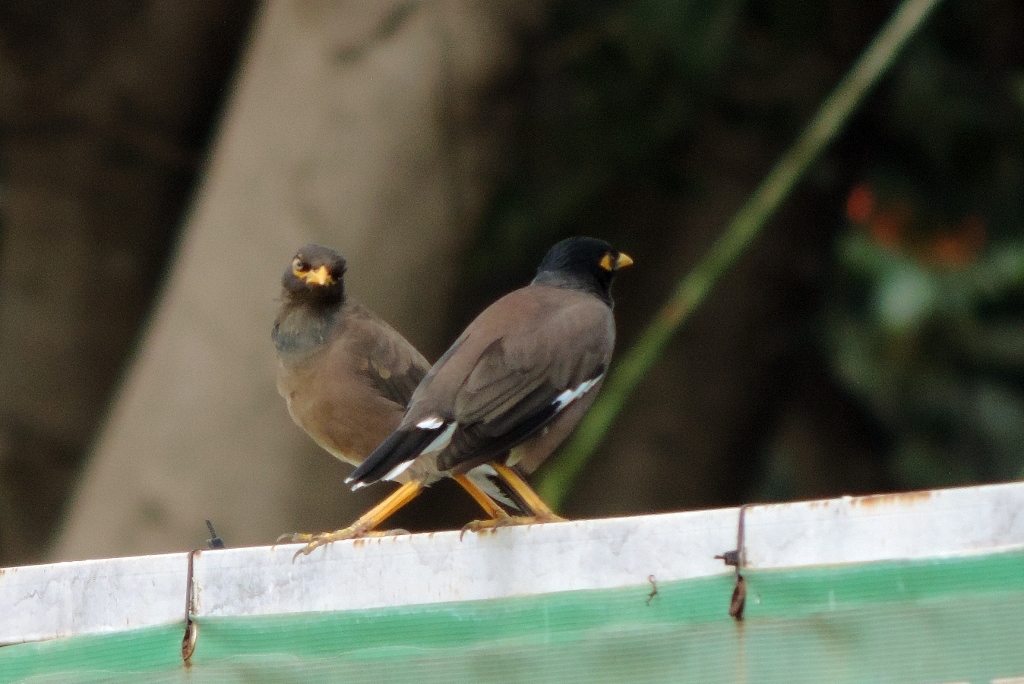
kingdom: Animalia
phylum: Chordata
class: Aves
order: Passeriformes
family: Sturnidae
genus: Acridotheres
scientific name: Acridotheres tristis
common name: Common myna
